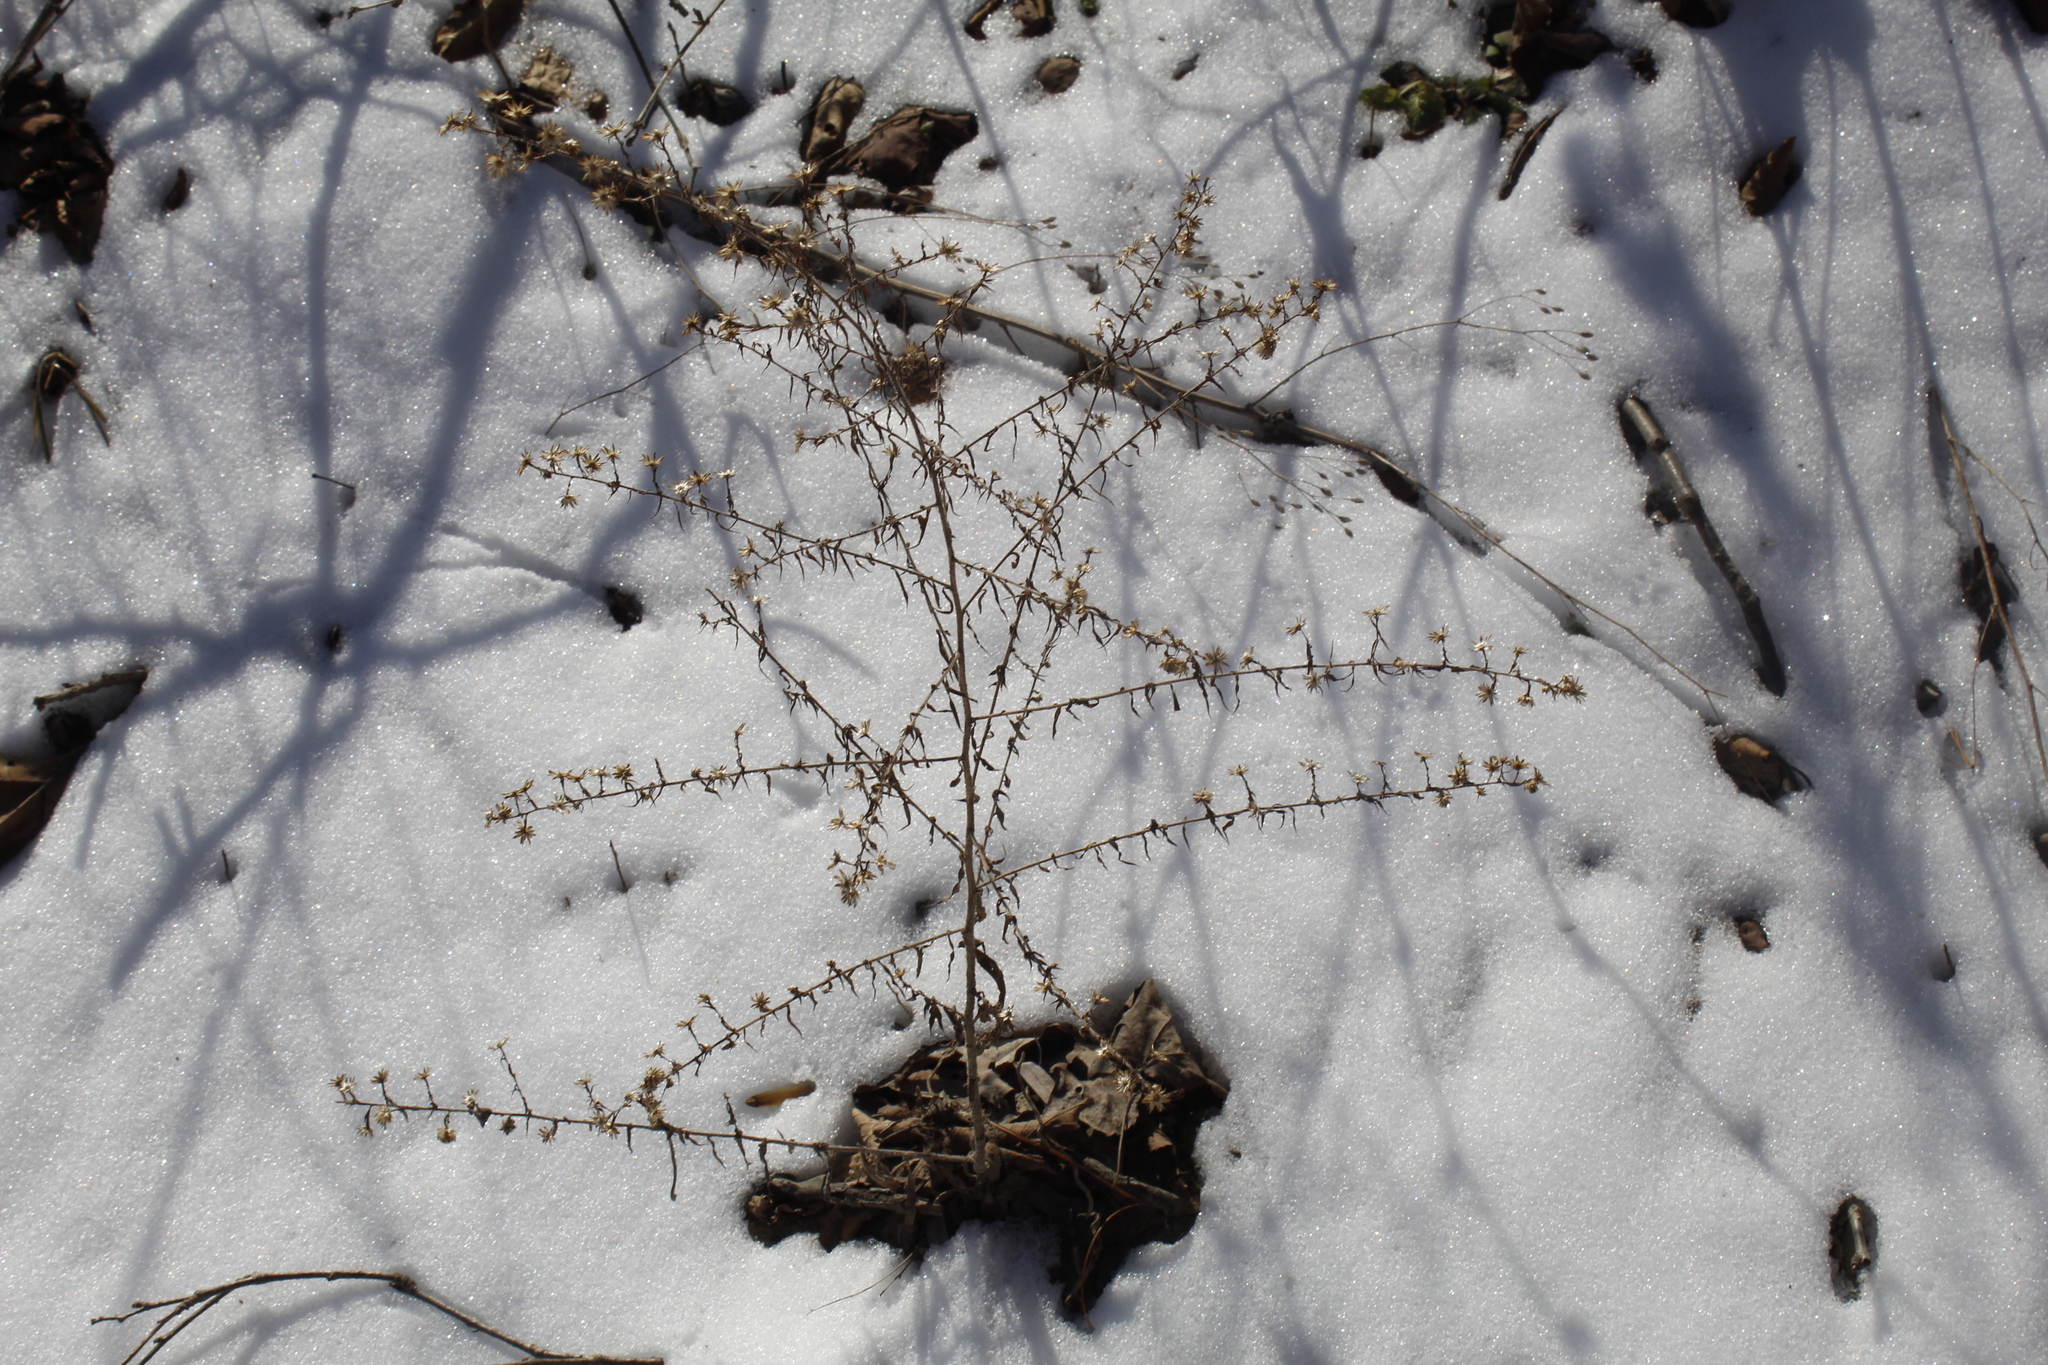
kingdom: Plantae
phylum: Tracheophyta
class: Magnoliopsida
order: Asterales
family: Asteraceae
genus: Symphyotrichum
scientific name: Symphyotrichum pilosum
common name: Awl aster
